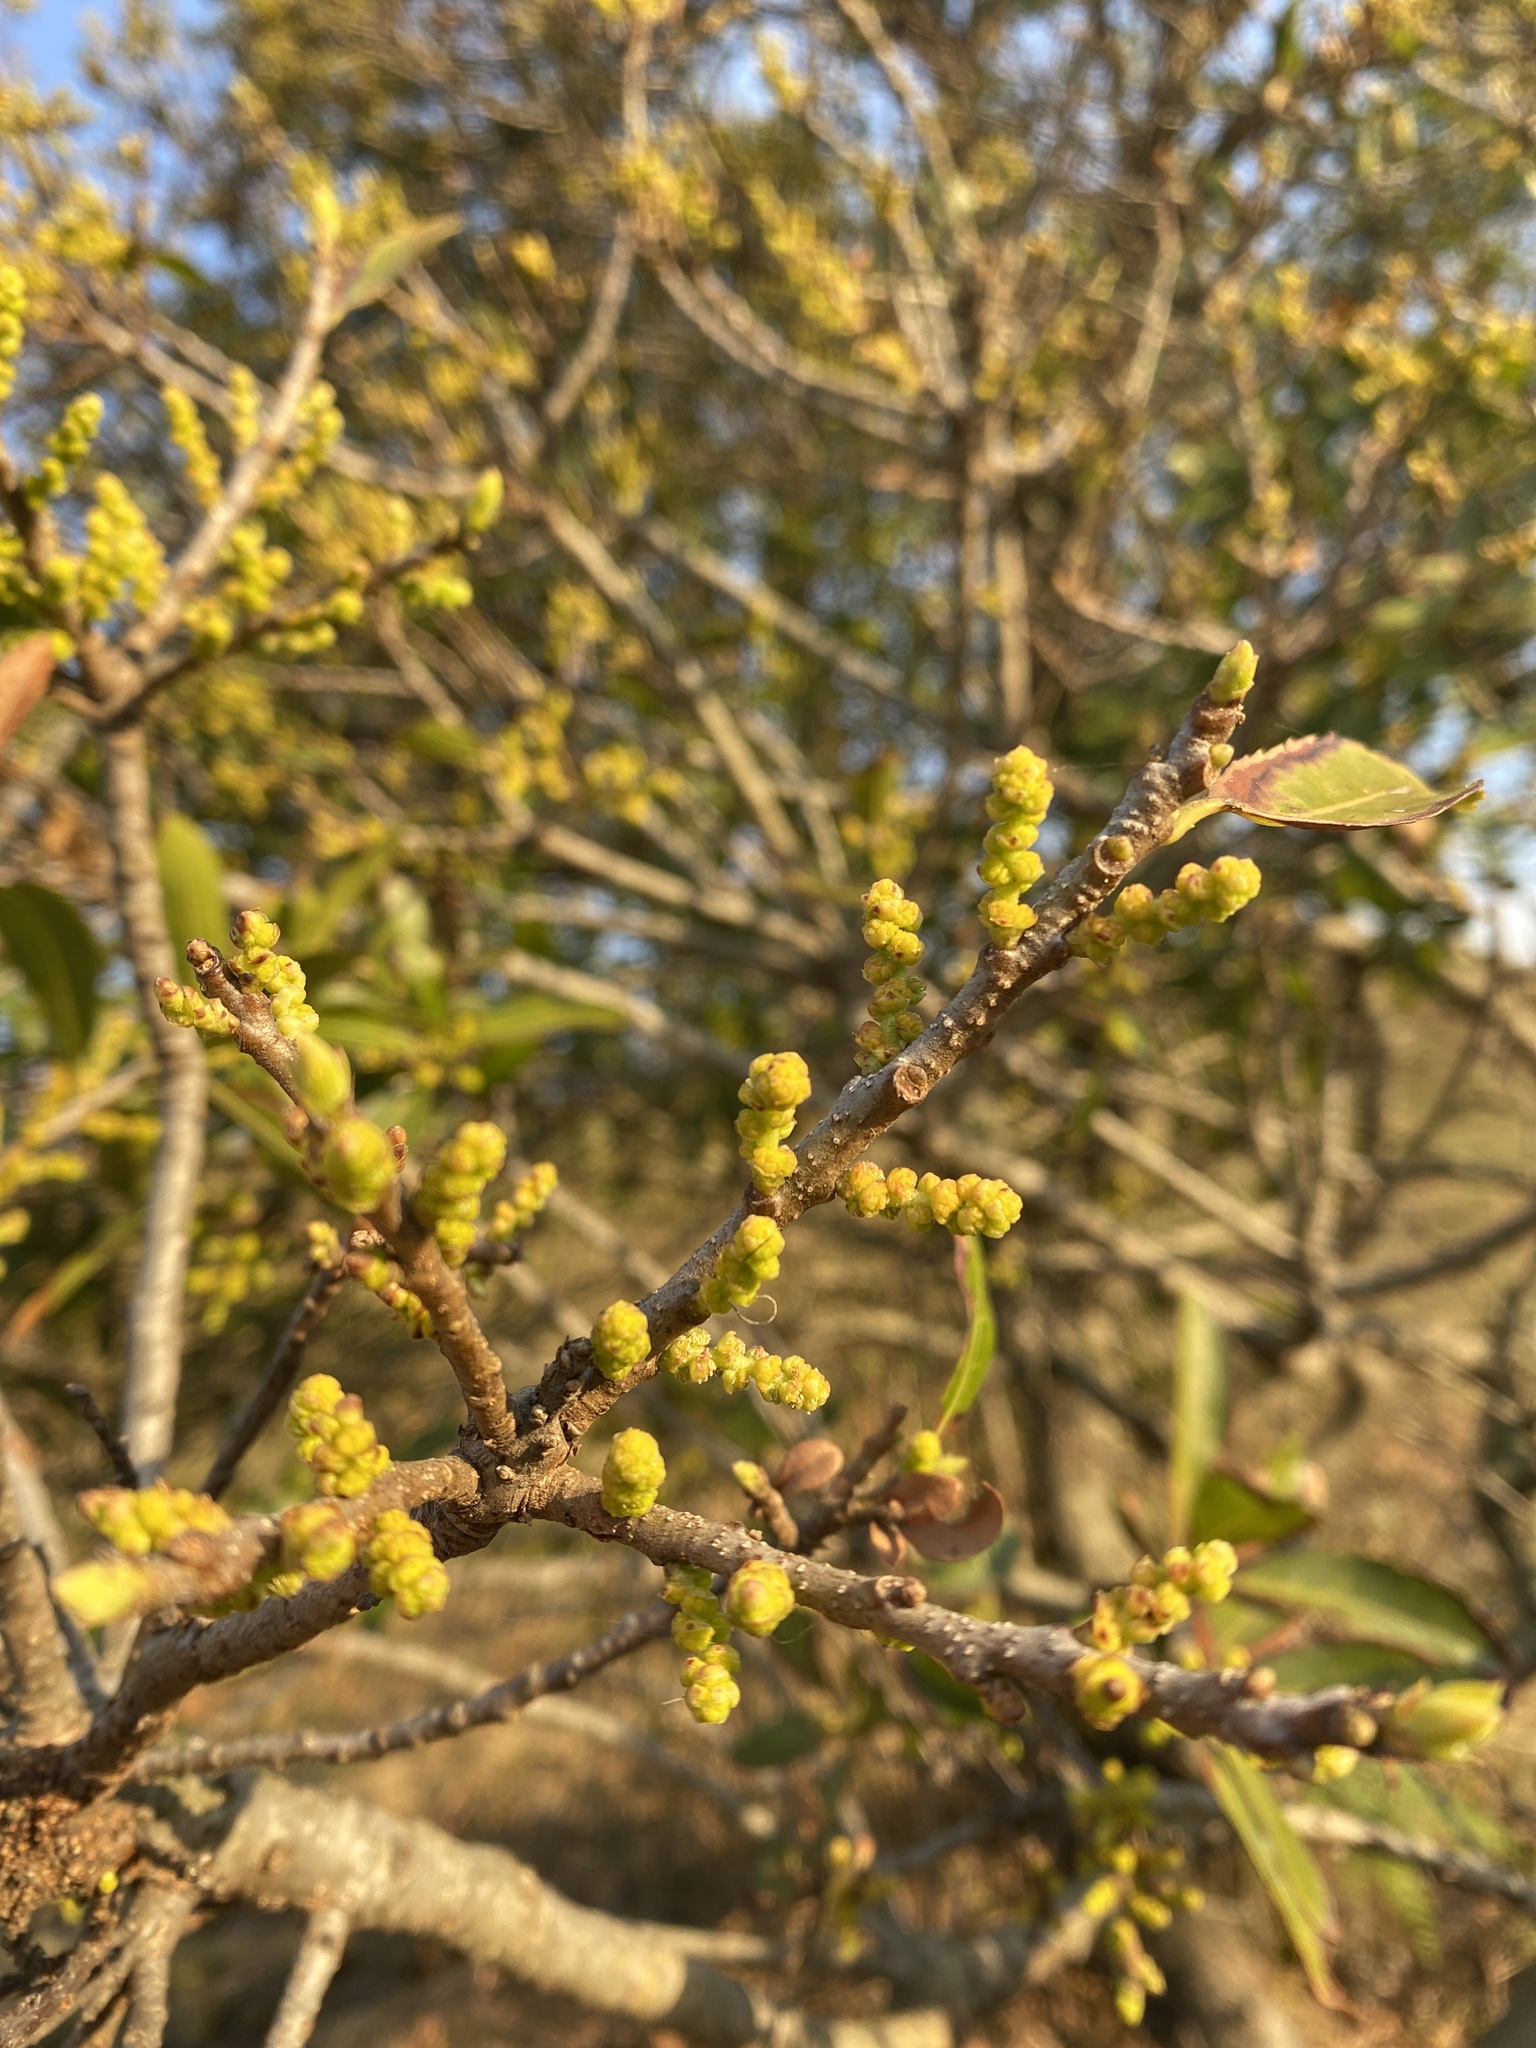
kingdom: Plantae
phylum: Tracheophyta
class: Magnoliopsida
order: Fagales
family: Myricaceae
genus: Morella
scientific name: Morella pilulifera
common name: Broad-leaved waxberry
